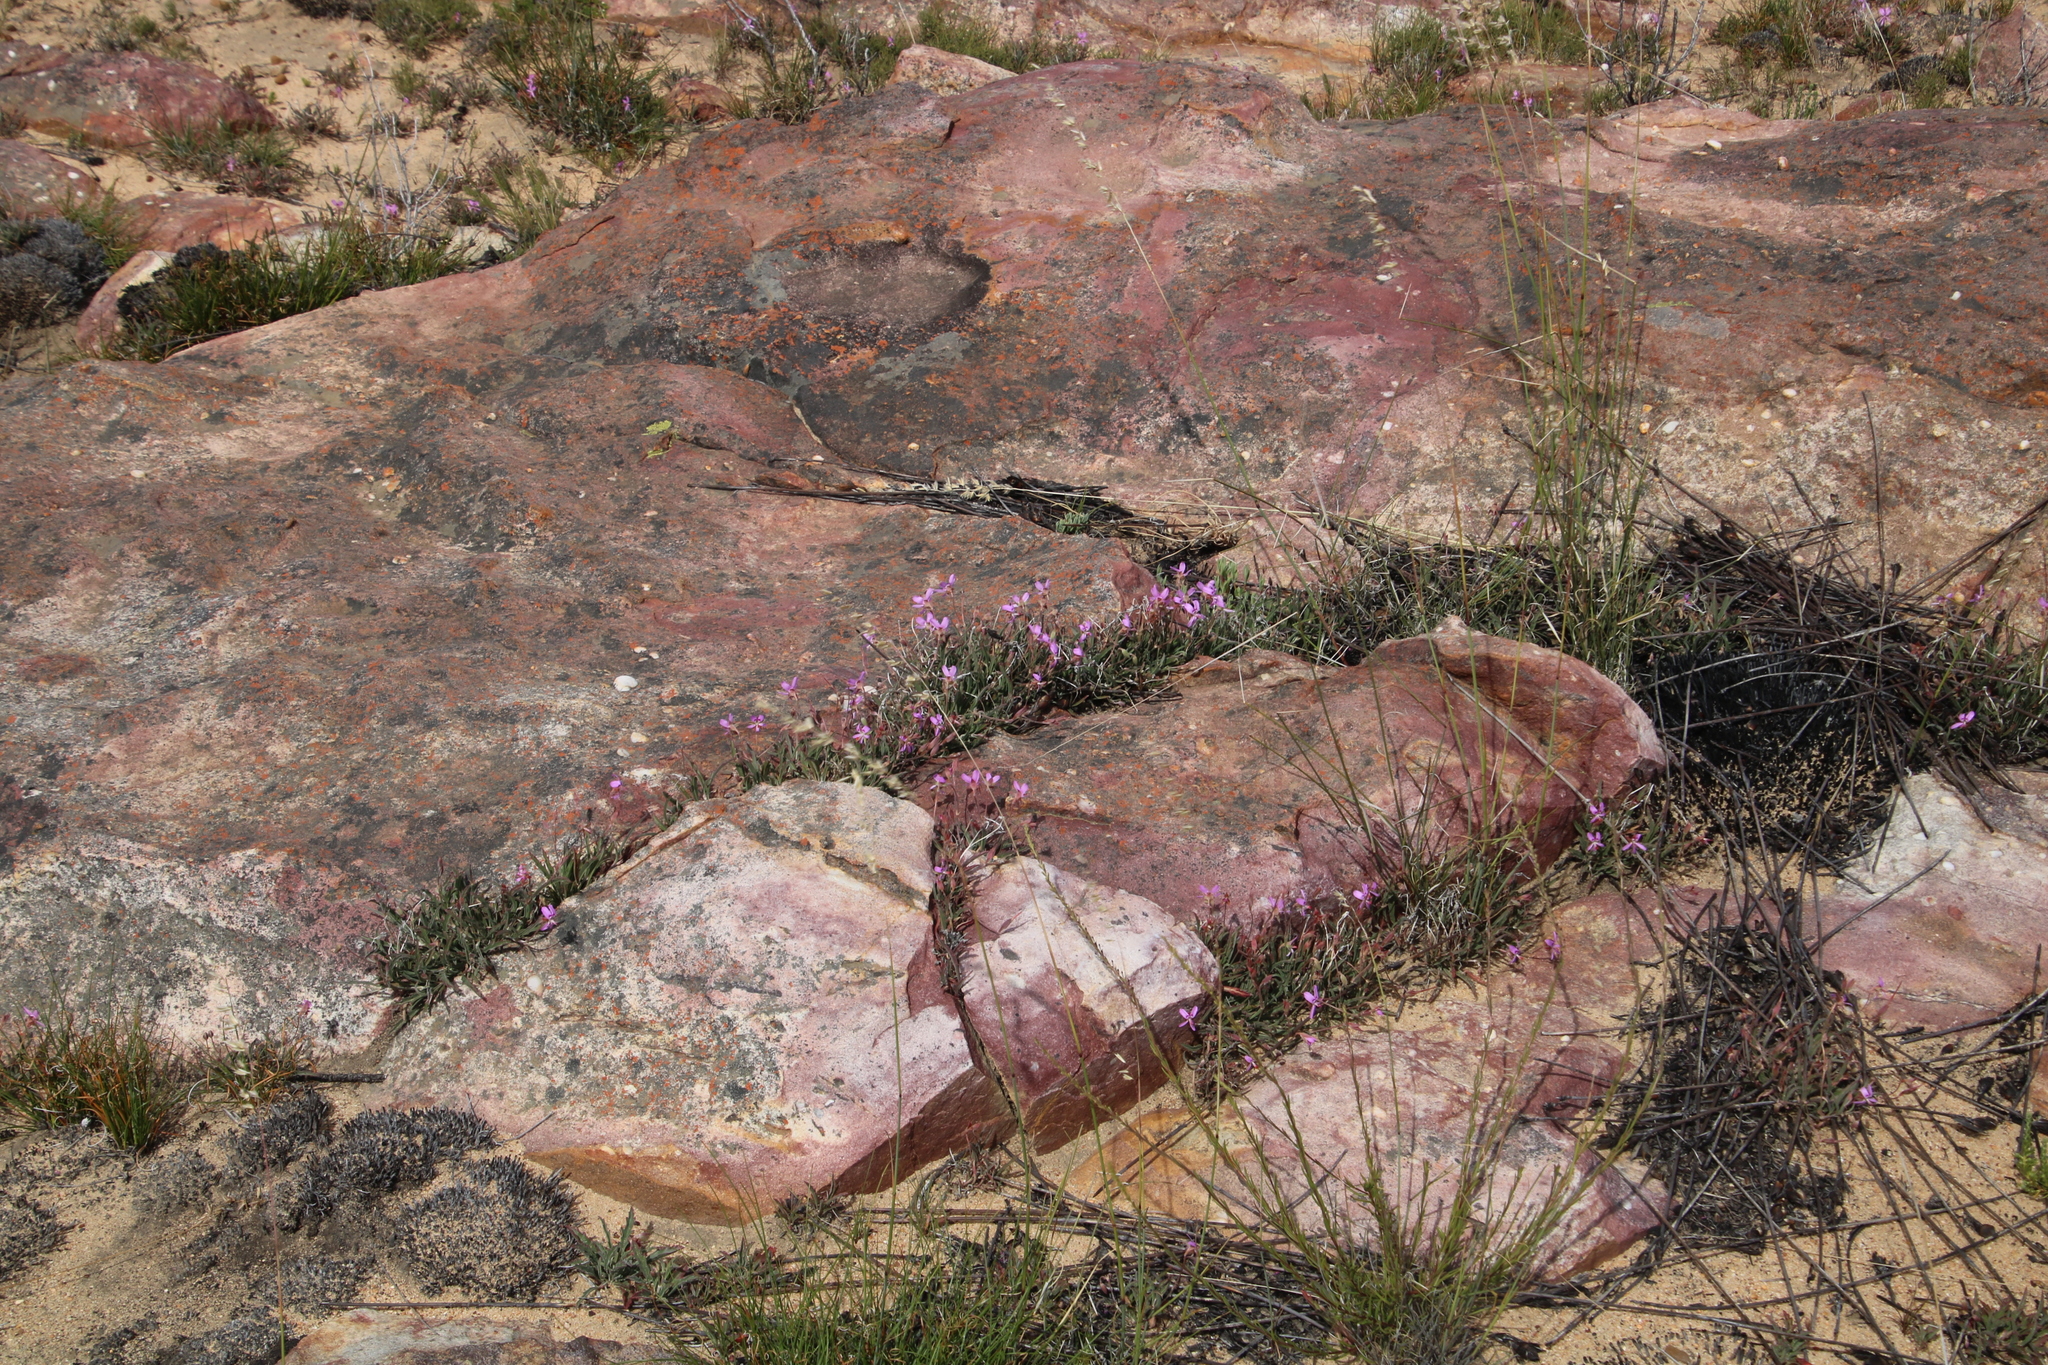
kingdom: Plantae
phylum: Tracheophyta
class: Magnoliopsida
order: Geraniales
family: Geraniaceae
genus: Pelargonium
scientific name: Pelargonium coronopifolium
